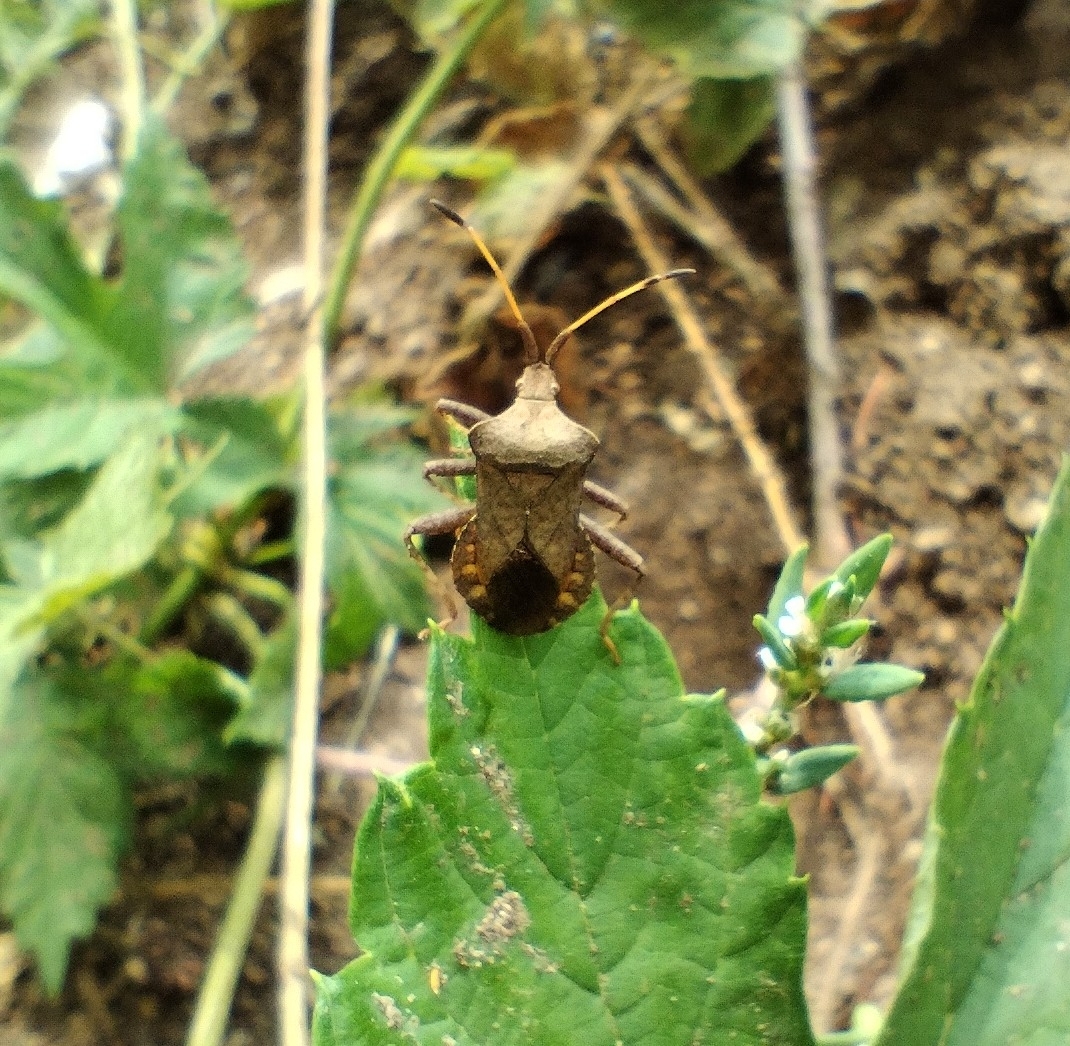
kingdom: Animalia
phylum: Arthropoda
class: Insecta
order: Hemiptera
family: Coreidae
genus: Coreus
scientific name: Coreus marginatus
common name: Dock bug
